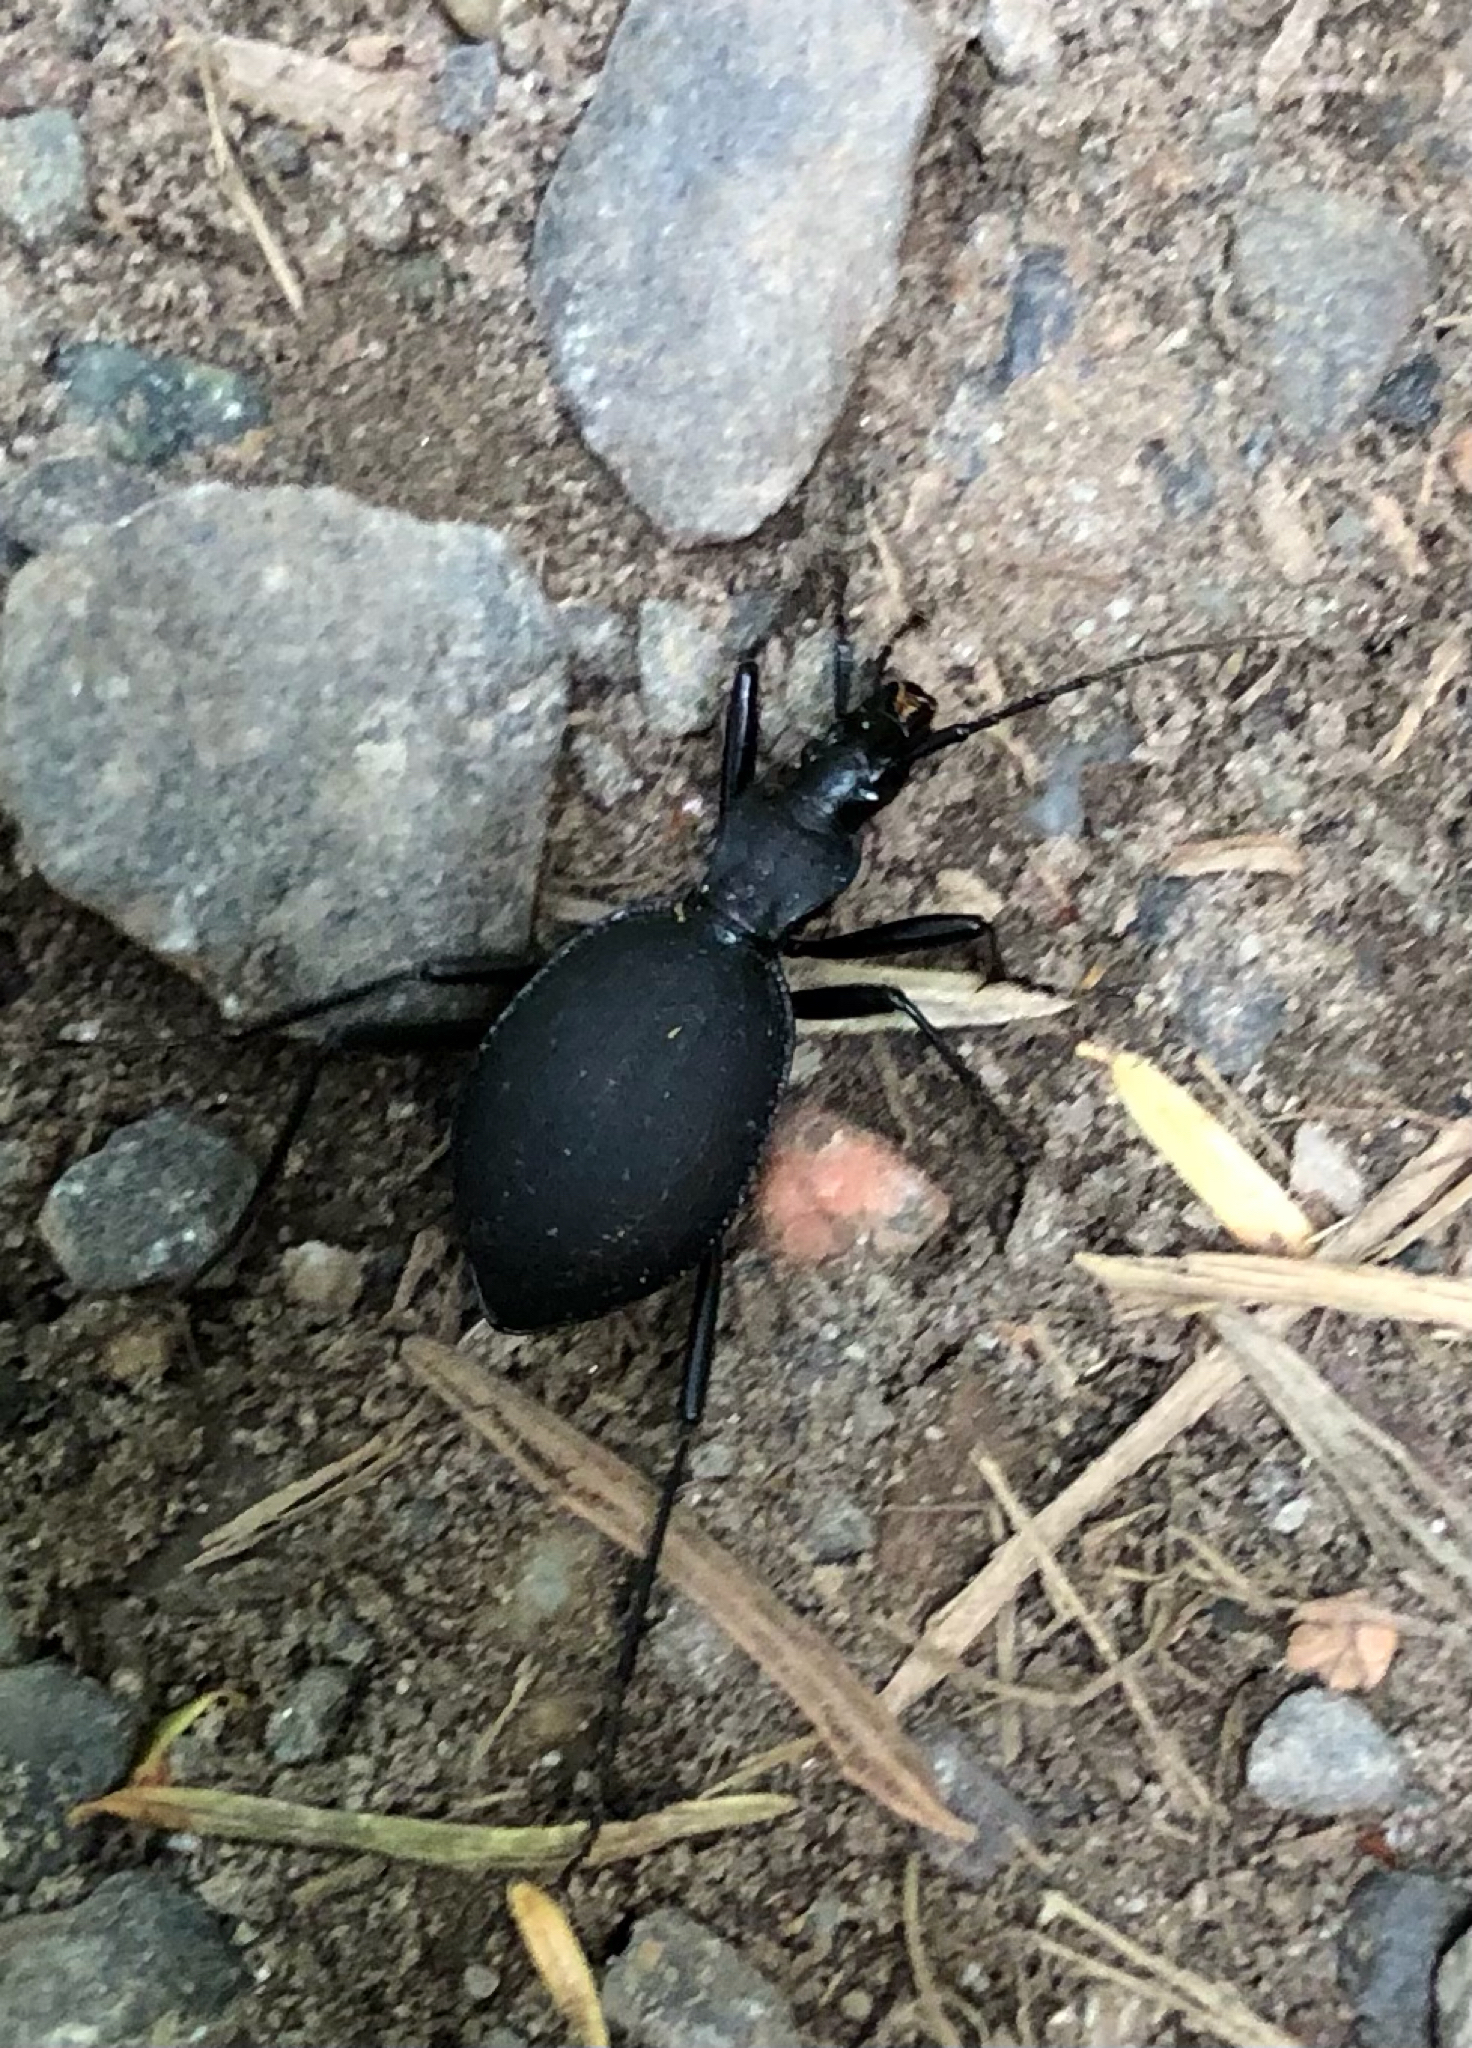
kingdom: Animalia
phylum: Arthropoda
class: Insecta
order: Coleoptera
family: Carabidae
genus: Scaphinotus
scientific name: Scaphinotus angusticollis
